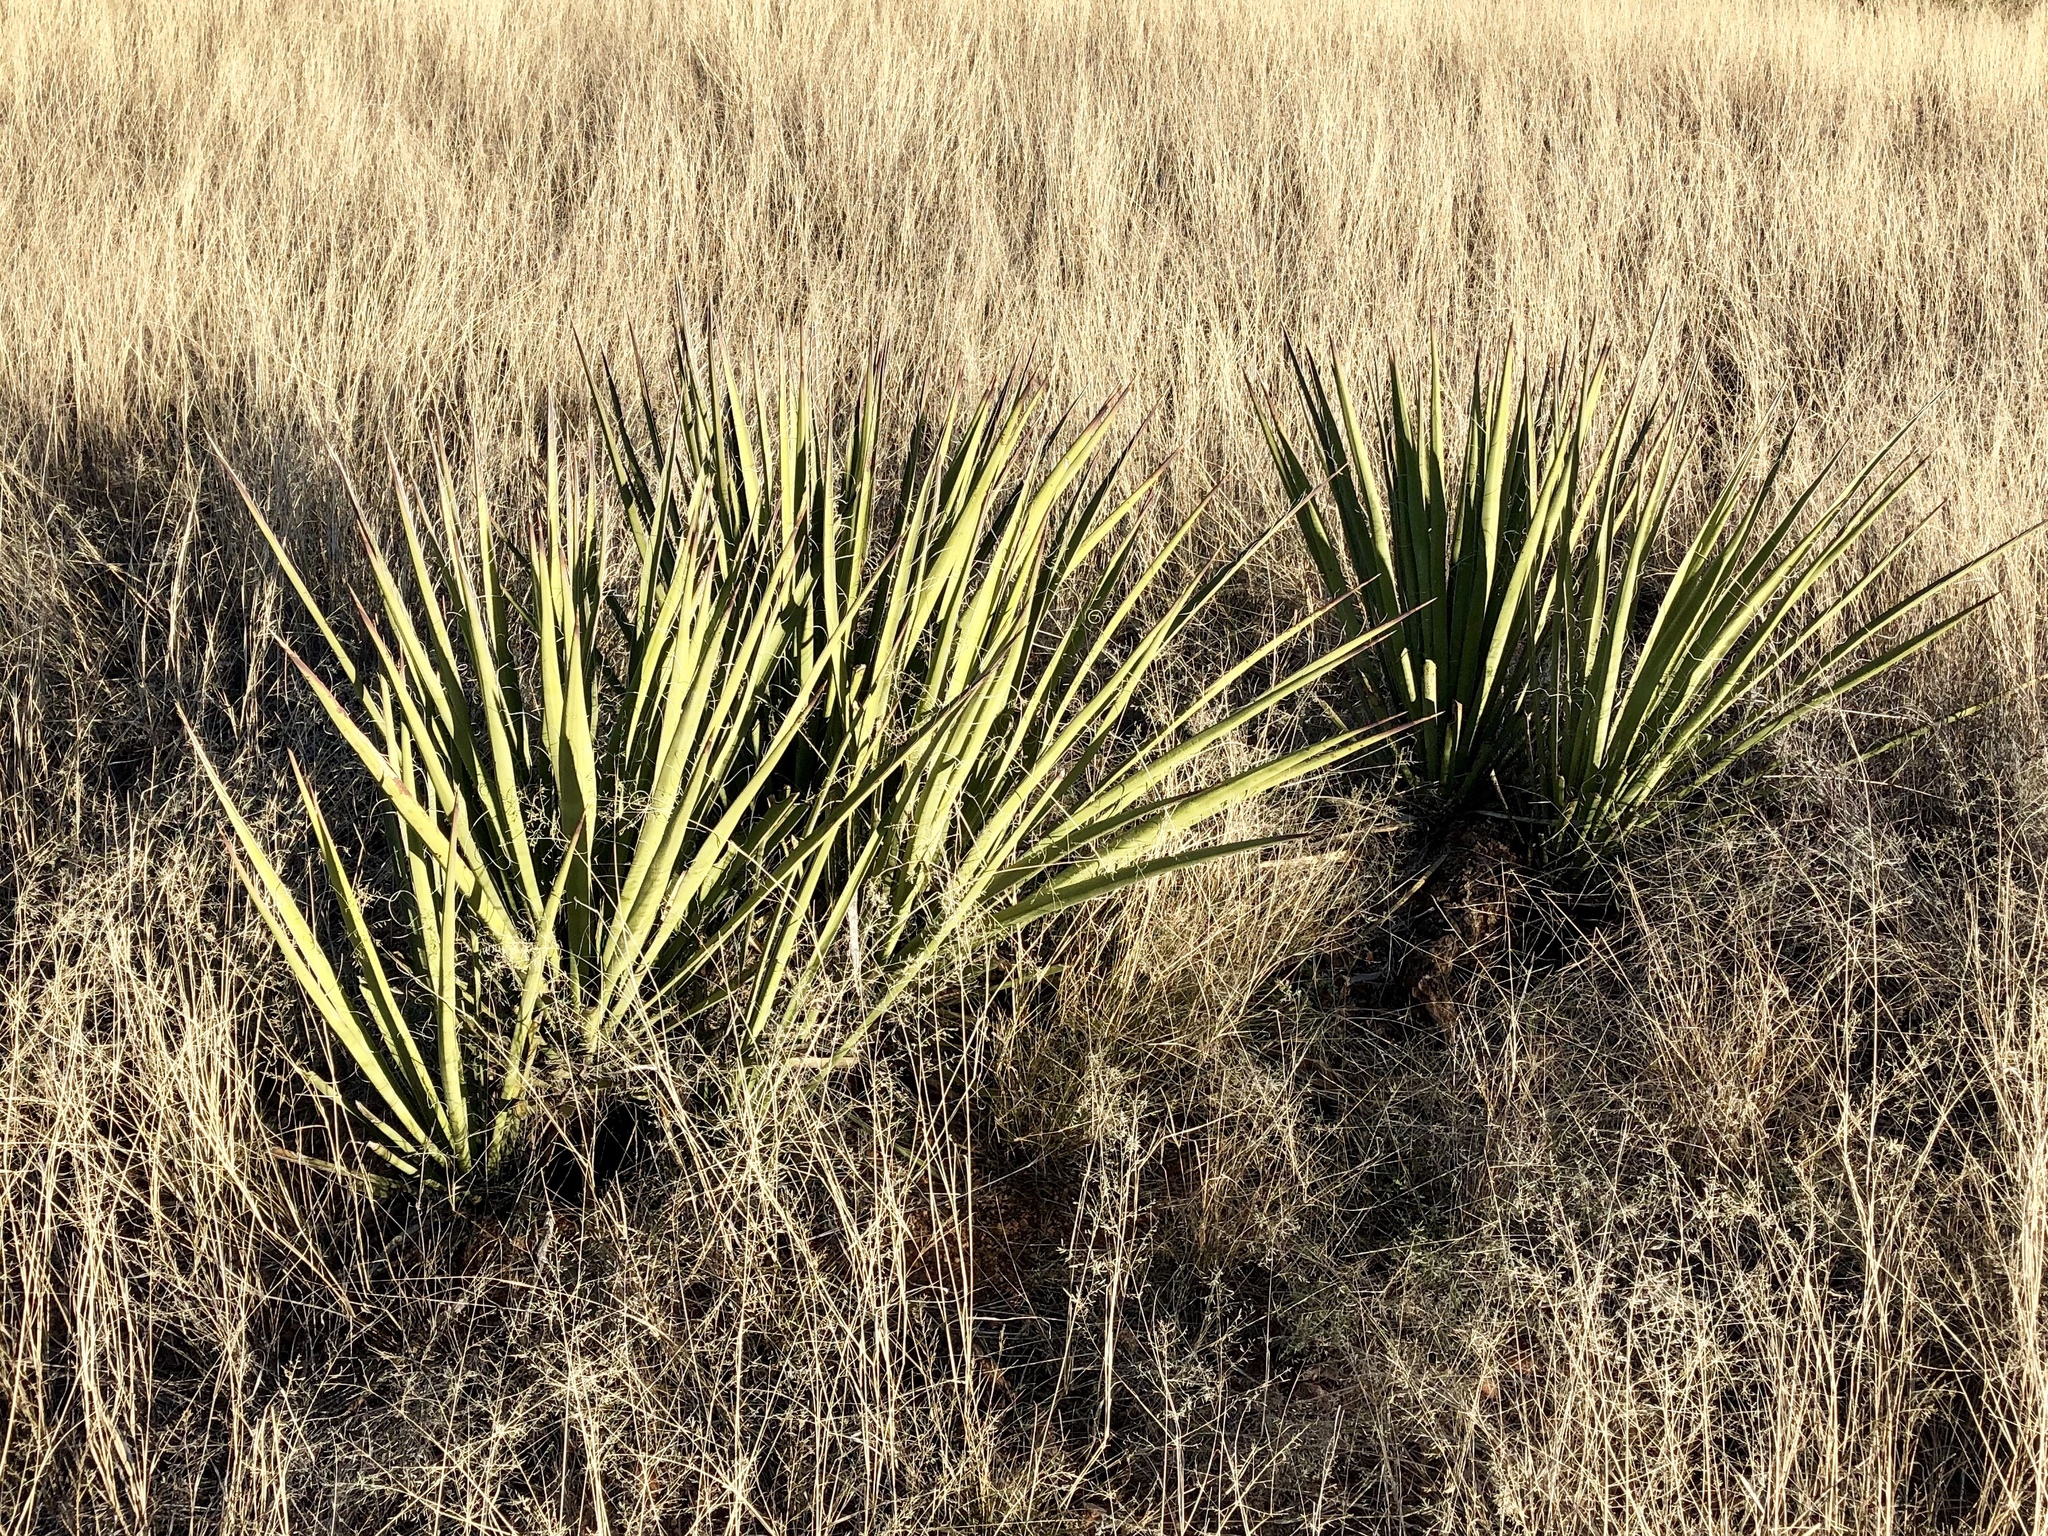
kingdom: Plantae
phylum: Tracheophyta
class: Liliopsida
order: Asparagales
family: Asparagaceae
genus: Yucca
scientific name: Yucca baccata
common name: Banana yucca
